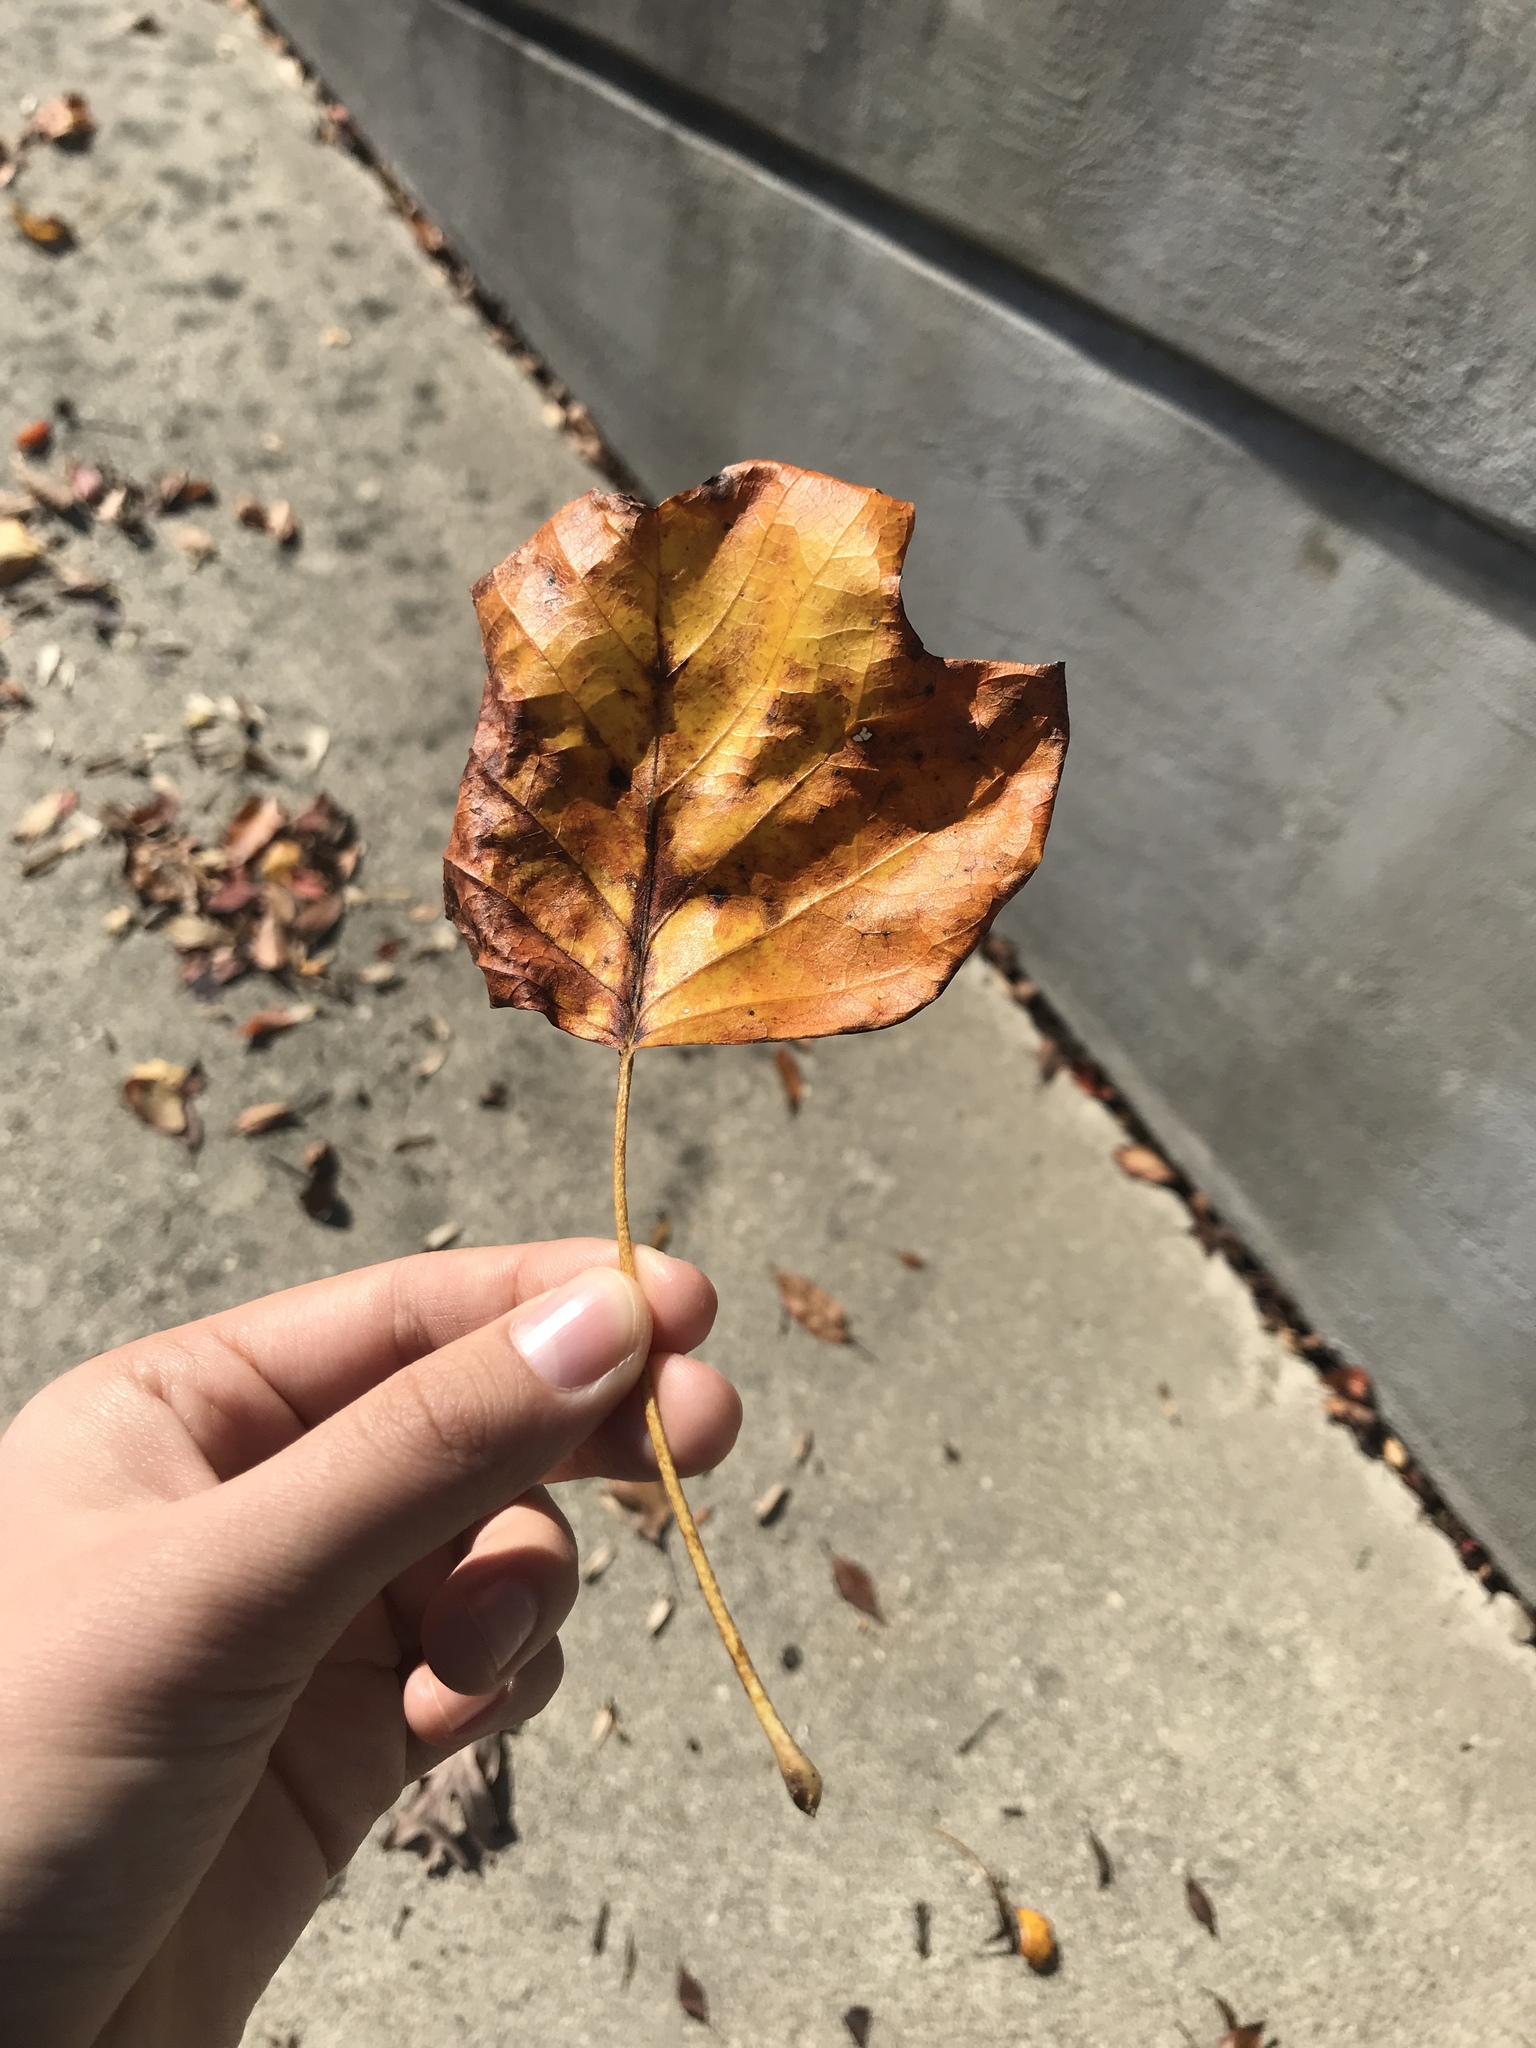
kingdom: Plantae
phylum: Tracheophyta
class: Magnoliopsida
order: Magnoliales
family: Magnoliaceae
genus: Liriodendron
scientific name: Liriodendron tulipifera
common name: Tulip tree
